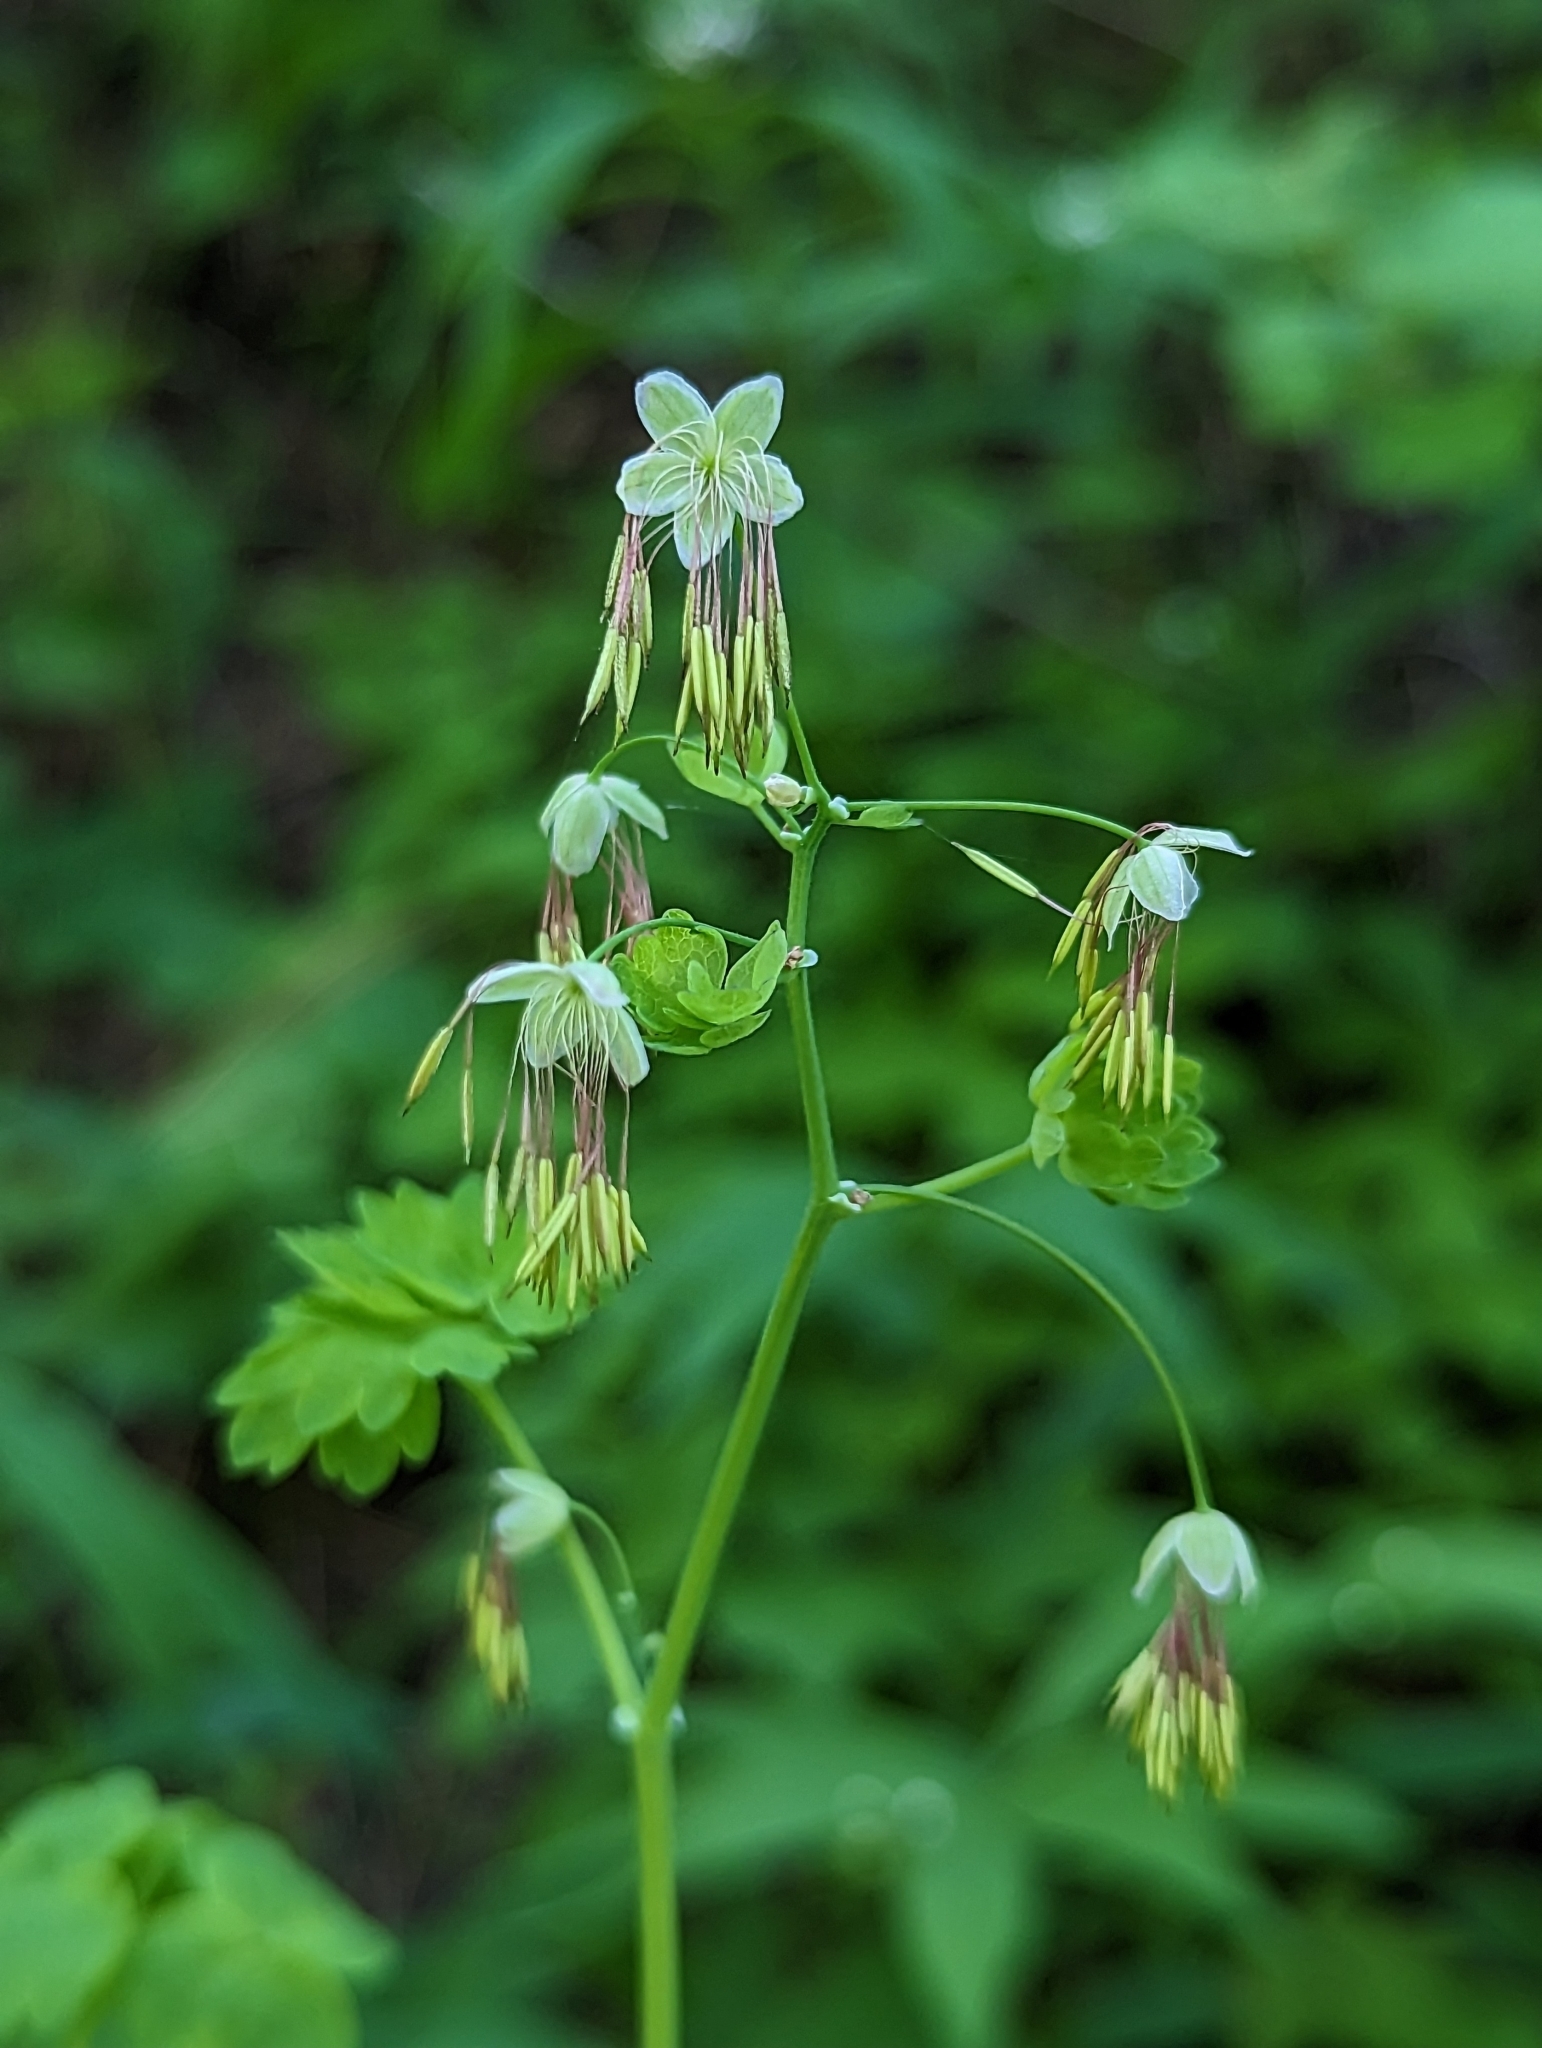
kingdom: Plantae
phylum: Tracheophyta
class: Magnoliopsida
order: Ranunculales
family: Ranunculaceae
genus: Thalictrum
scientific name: Thalictrum occidentale
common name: Western meadow-rue
